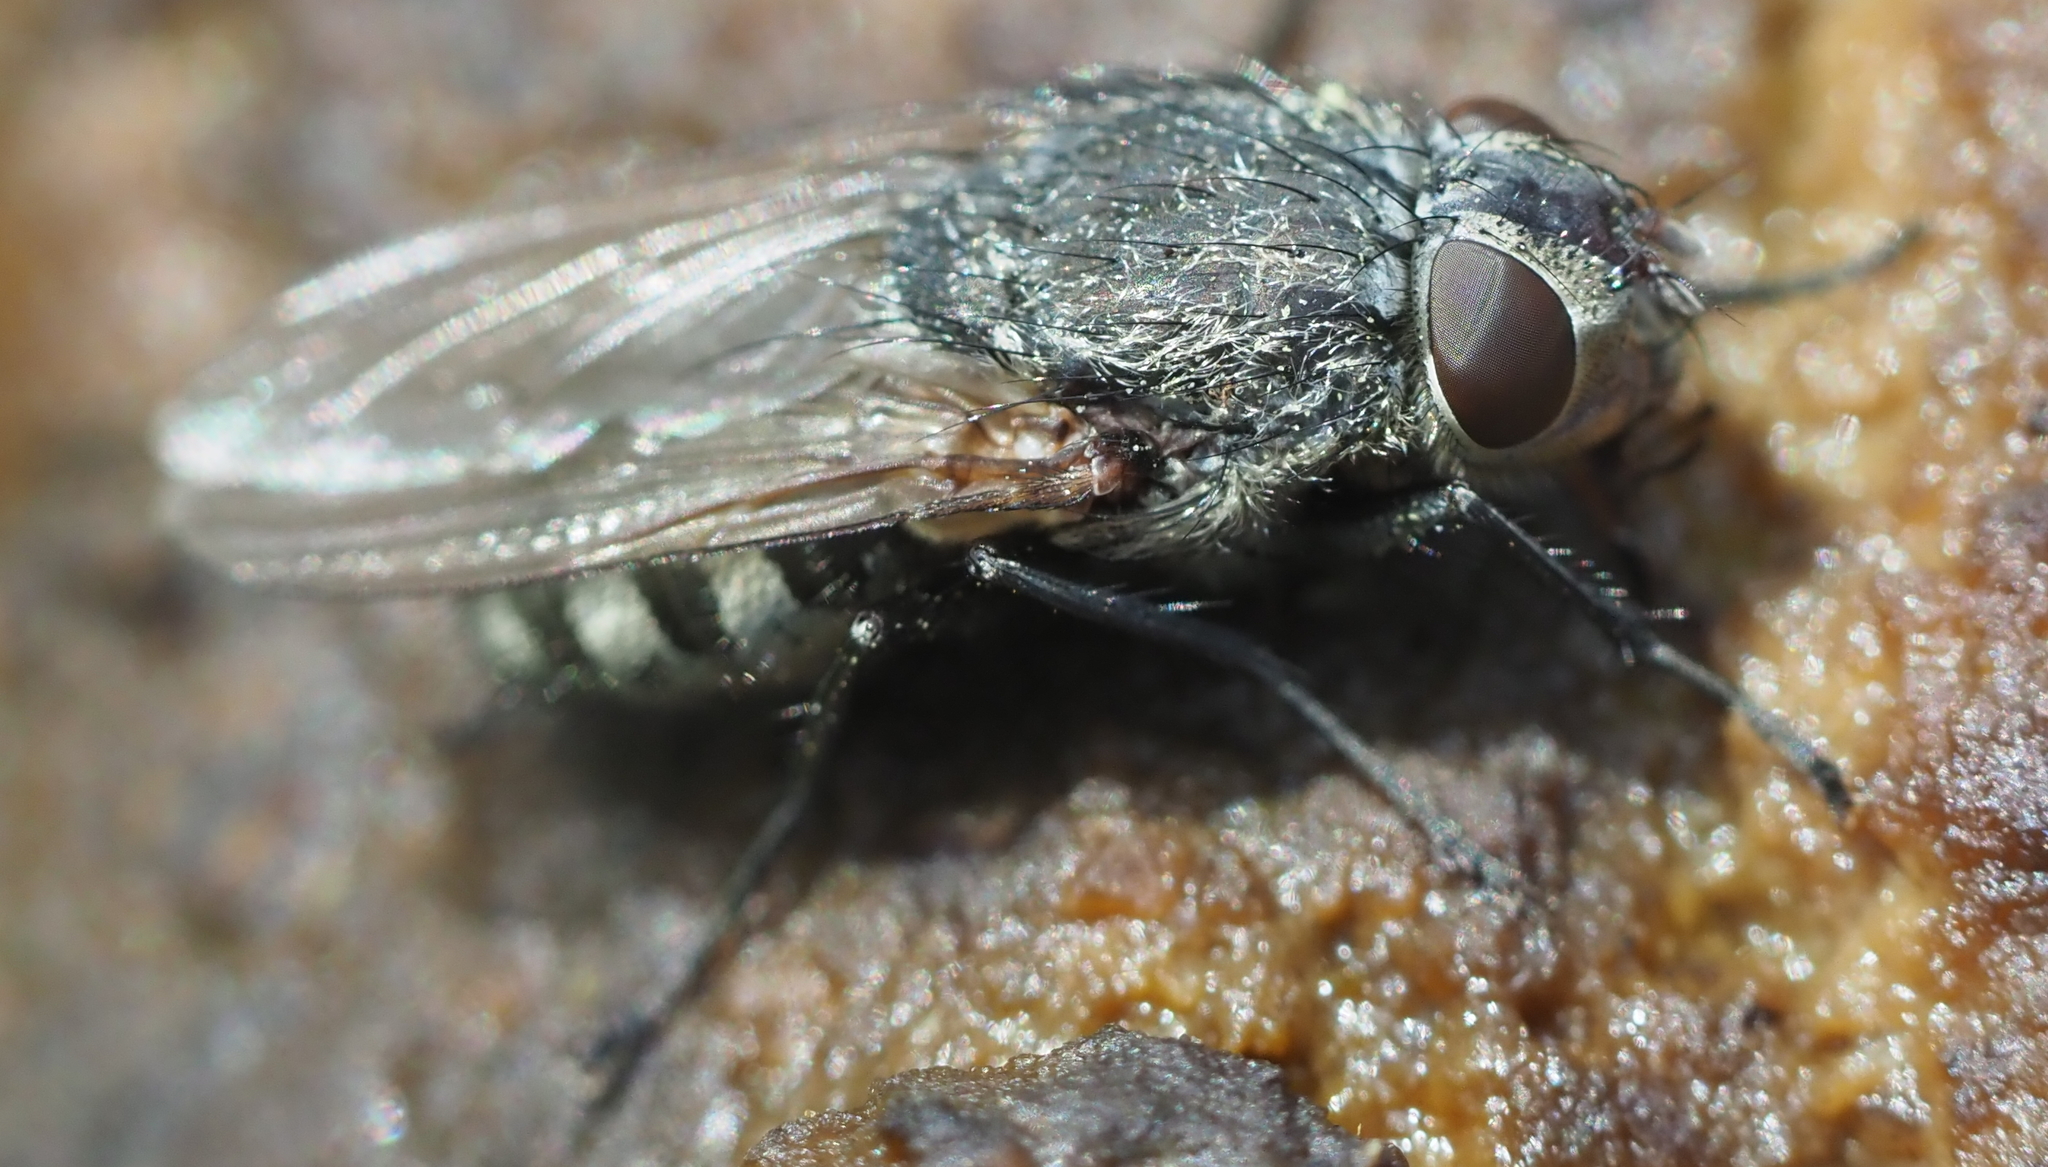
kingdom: Animalia
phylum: Arthropoda
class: Insecta
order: Diptera
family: Polleniidae
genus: Pollenia
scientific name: Pollenia
